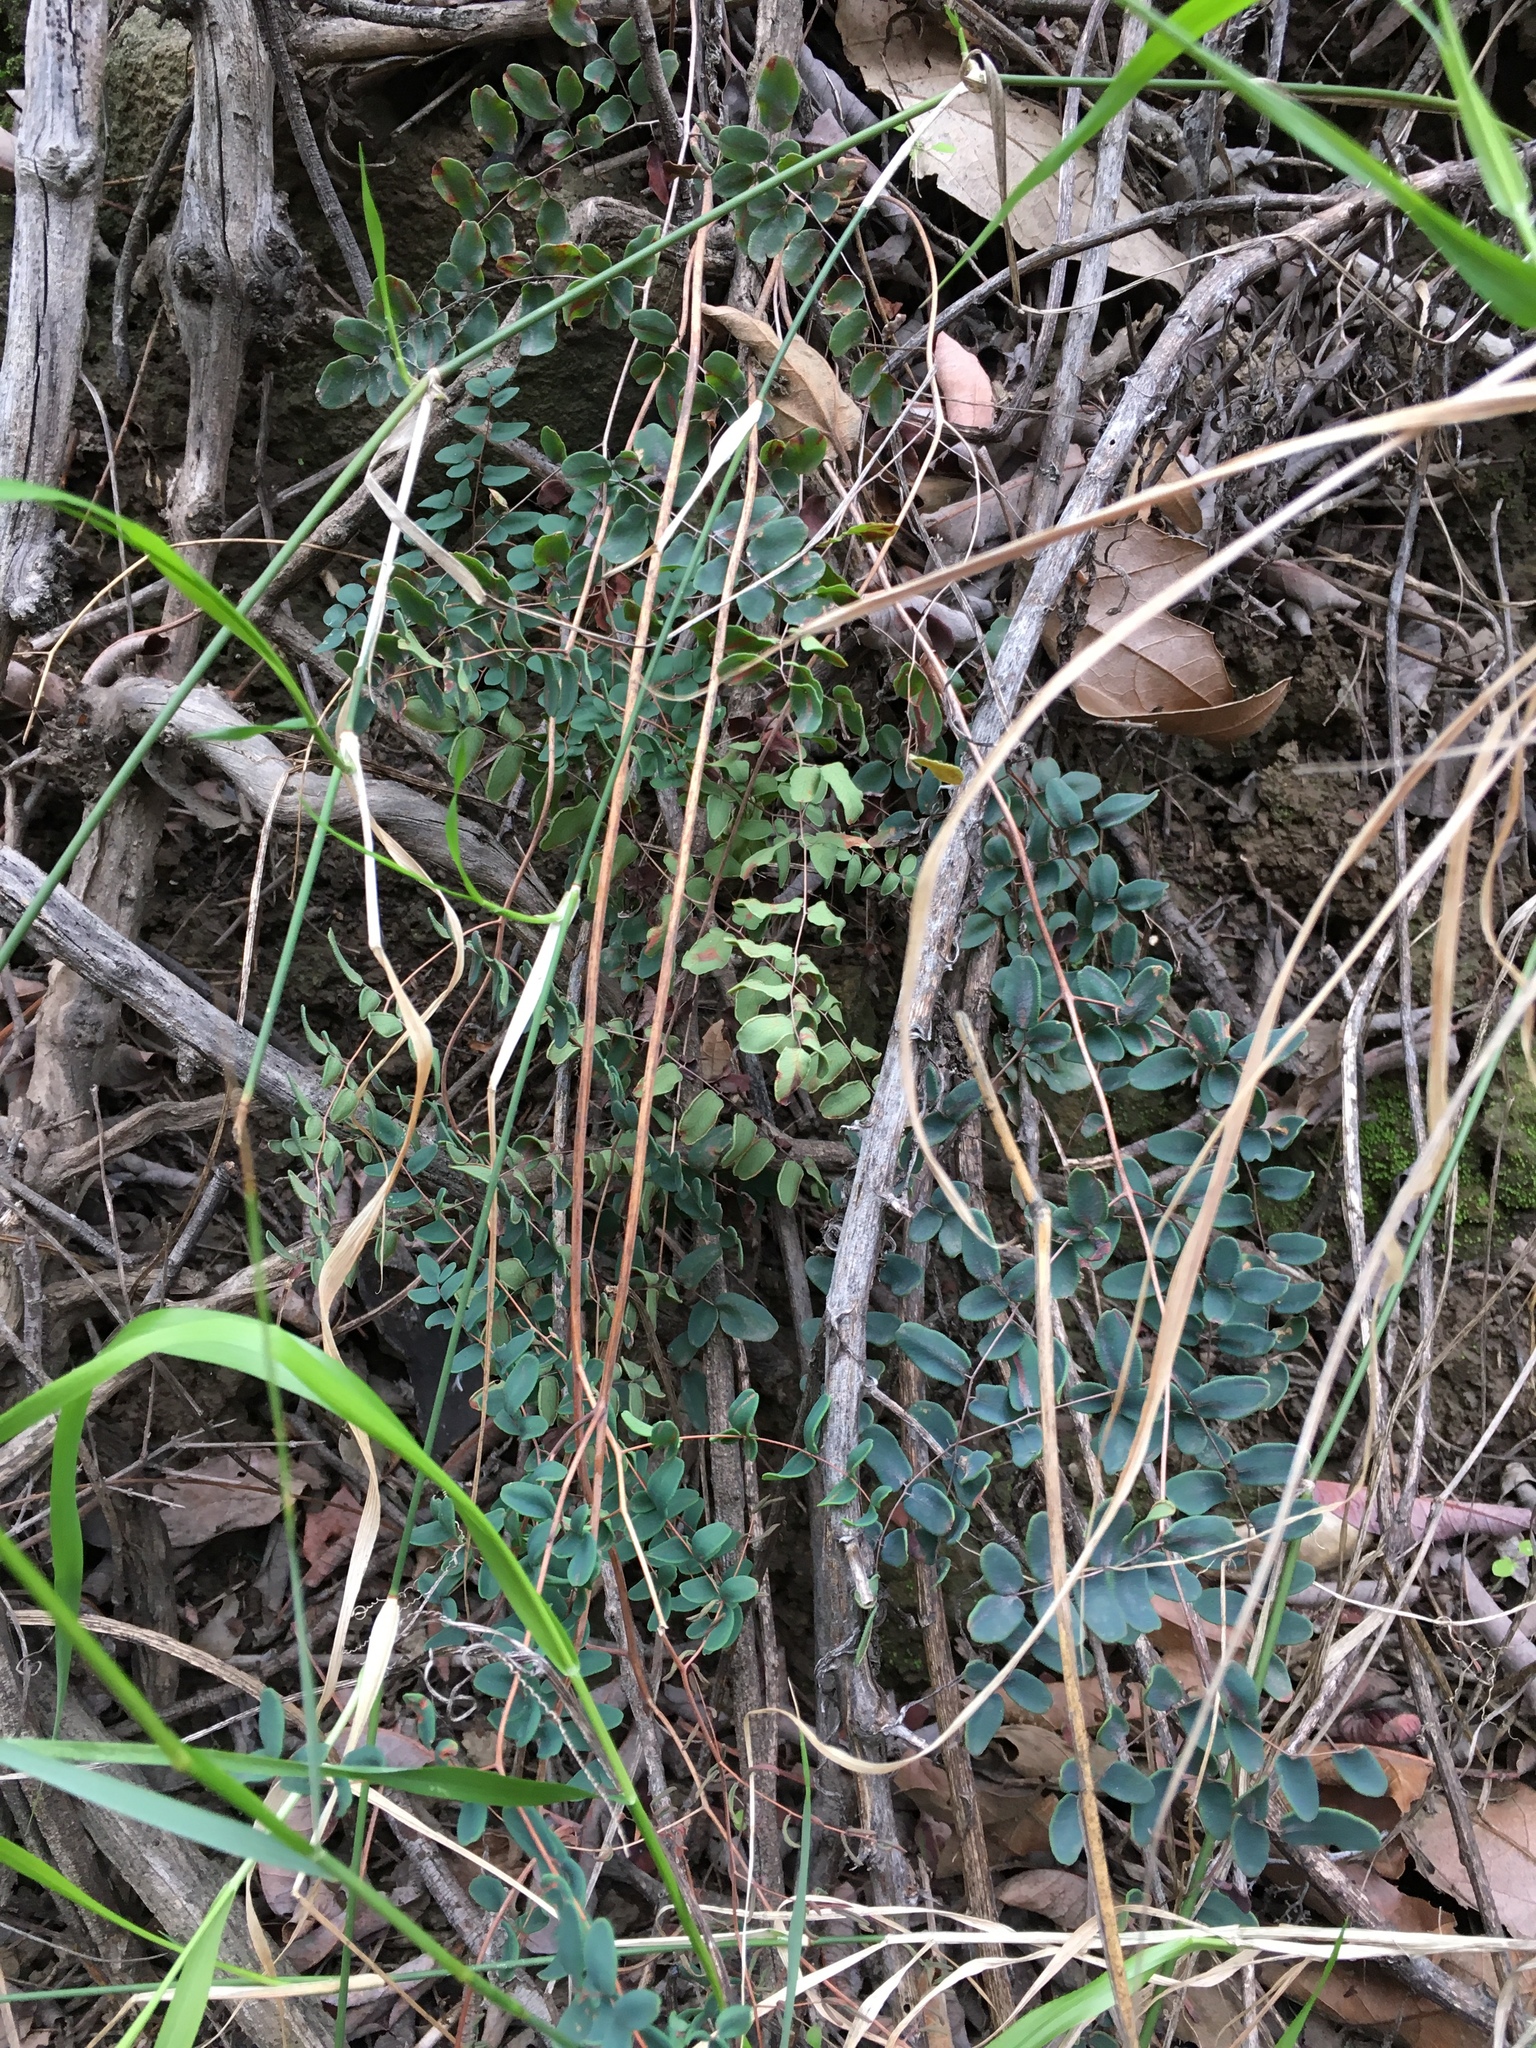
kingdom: Plantae
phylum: Tracheophyta
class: Polypodiopsida
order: Polypodiales
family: Pteridaceae
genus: Pellaea
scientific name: Pellaea andromedifolia
